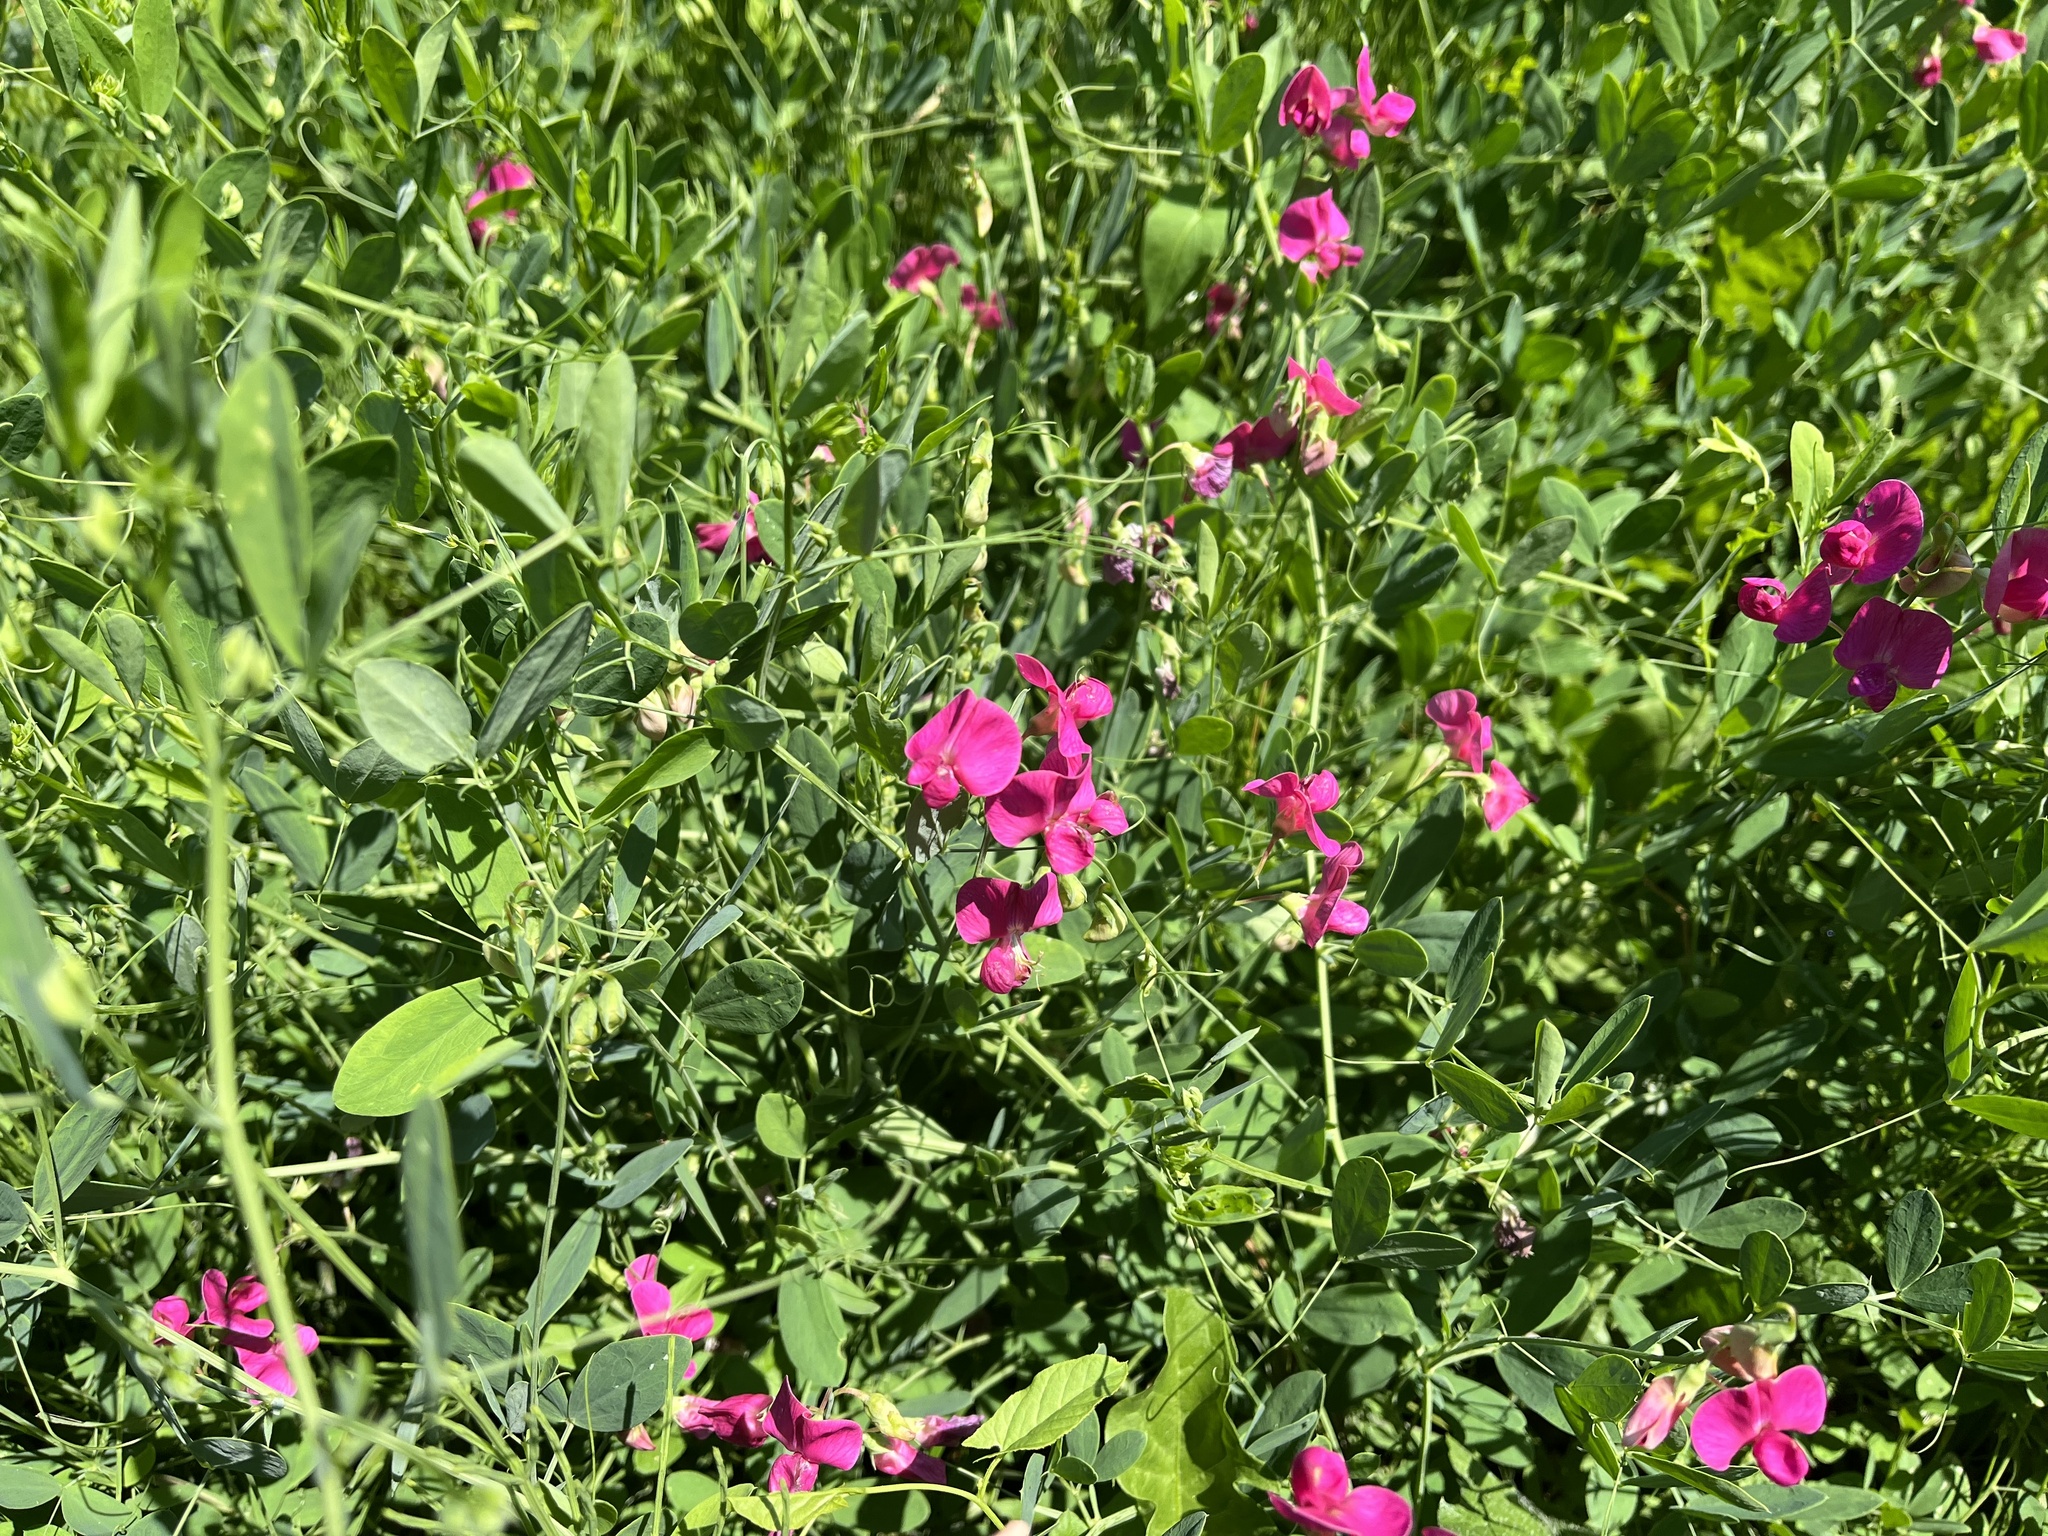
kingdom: Plantae
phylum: Tracheophyta
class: Magnoliopsida
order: Fabales
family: Fabaceae
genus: Lathyrus
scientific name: Lathyrus tuberosus
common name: Tuberous pea
